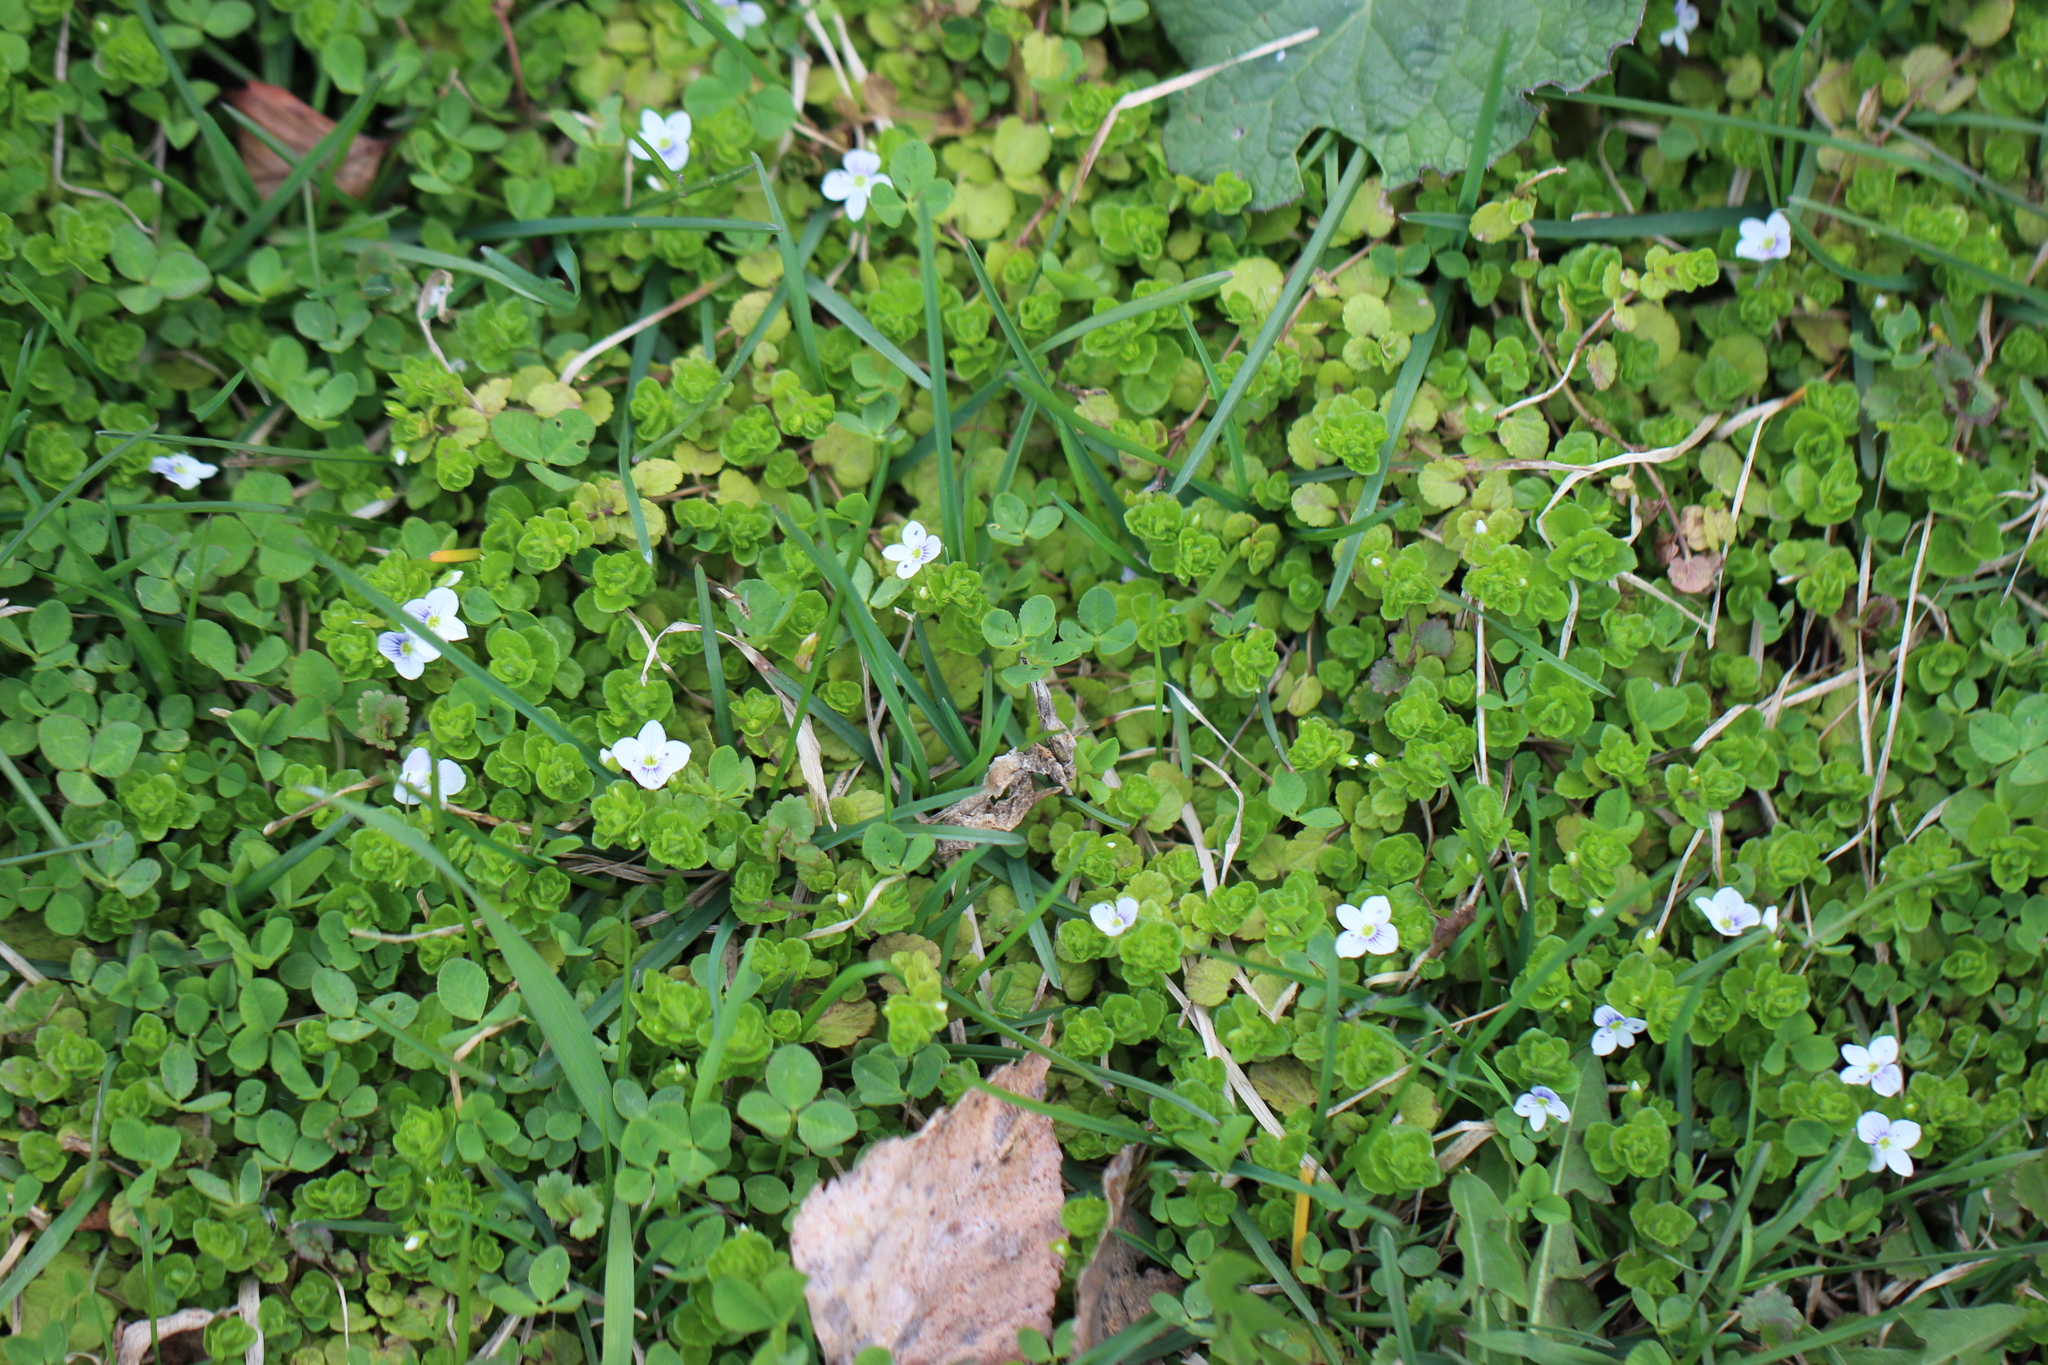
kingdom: Plantae
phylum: Tracheophyta
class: Magnoliopsida
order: Lamiales
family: Plantaginaceae
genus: Veronica
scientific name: Veronica filiformis
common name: Slender speedwell
